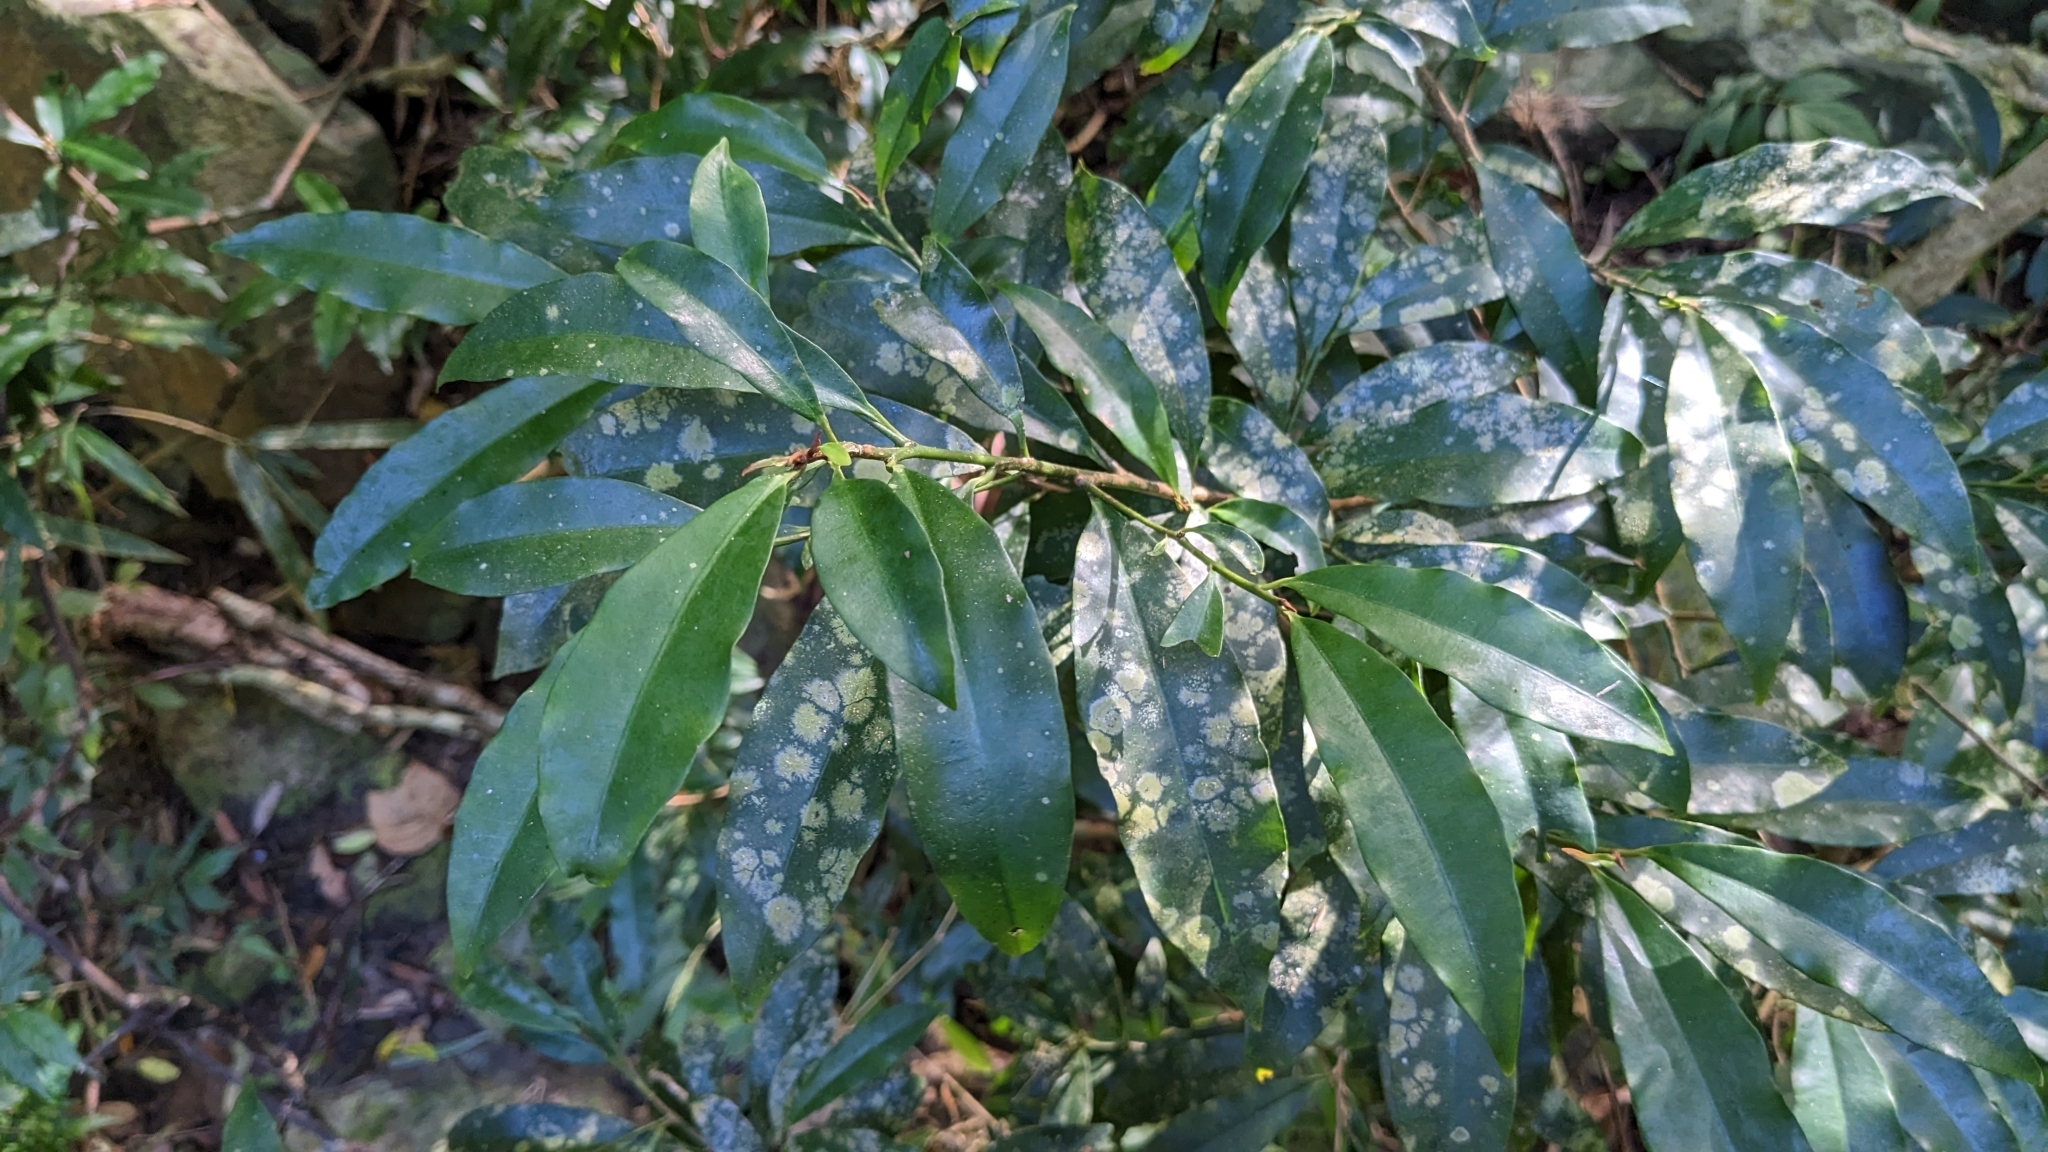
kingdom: Plantae
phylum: Tracheophyta
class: Magnoliopsida
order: Ericales
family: Primulaceae
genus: Ardisia
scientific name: Ardisia quinquegona
